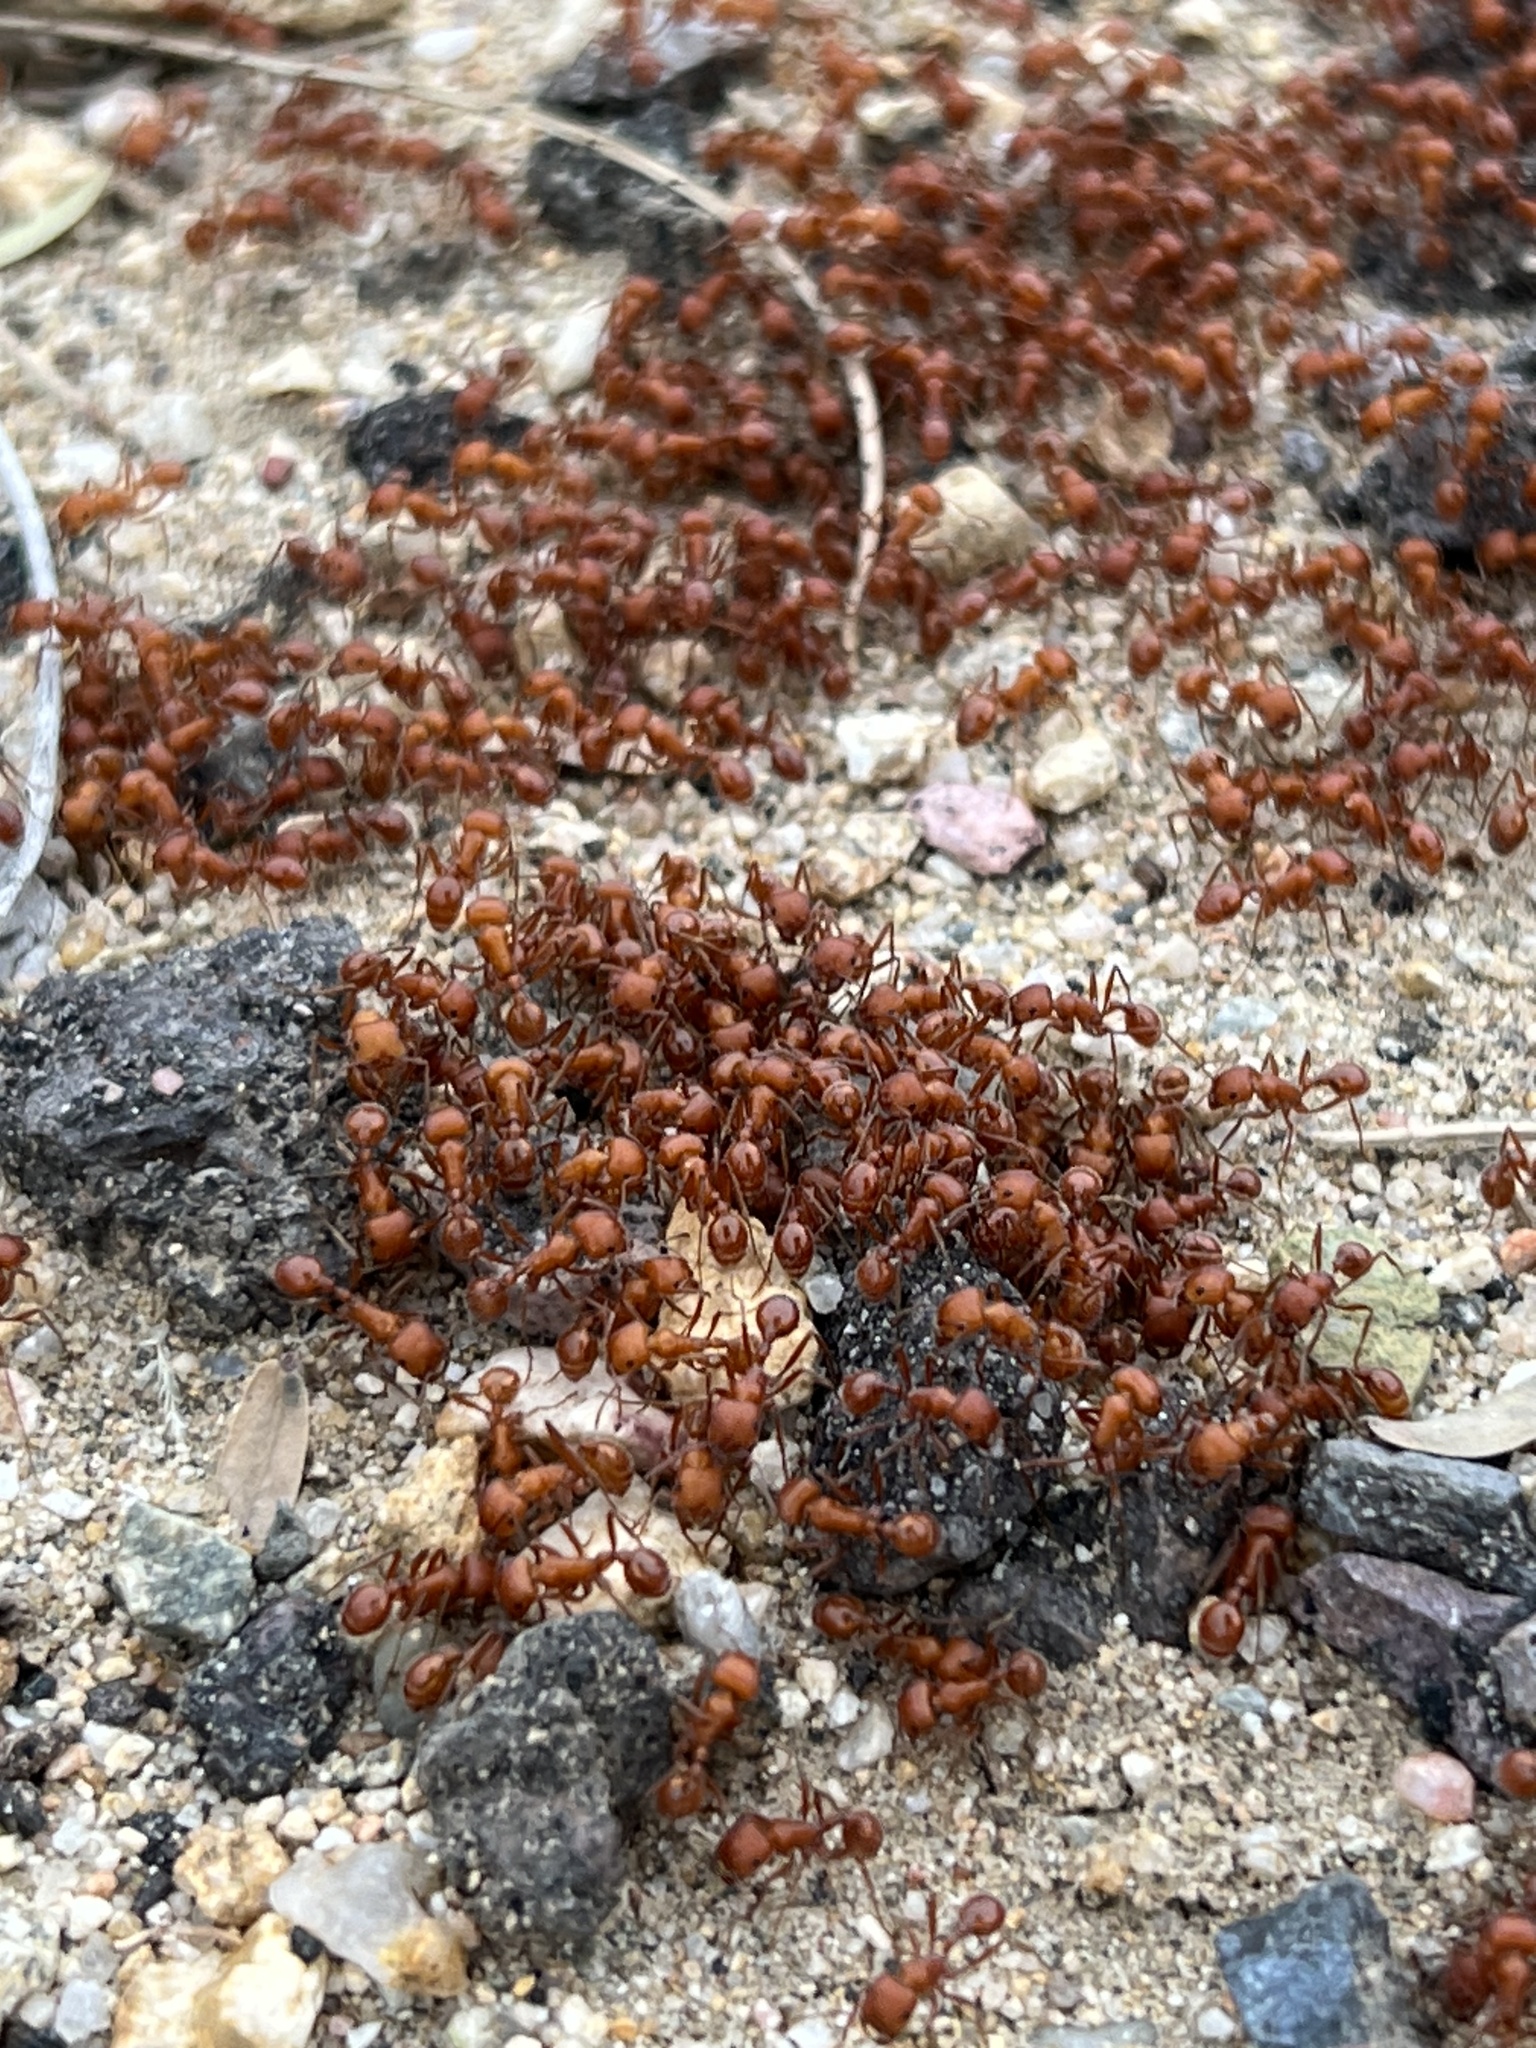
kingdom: Animalia
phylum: Arthropoda
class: Insecta
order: Hymenoptera
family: Formicidae
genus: Pogonomyrmex
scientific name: Pogonomyrmex maricopa
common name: Maricopa harvester ant
